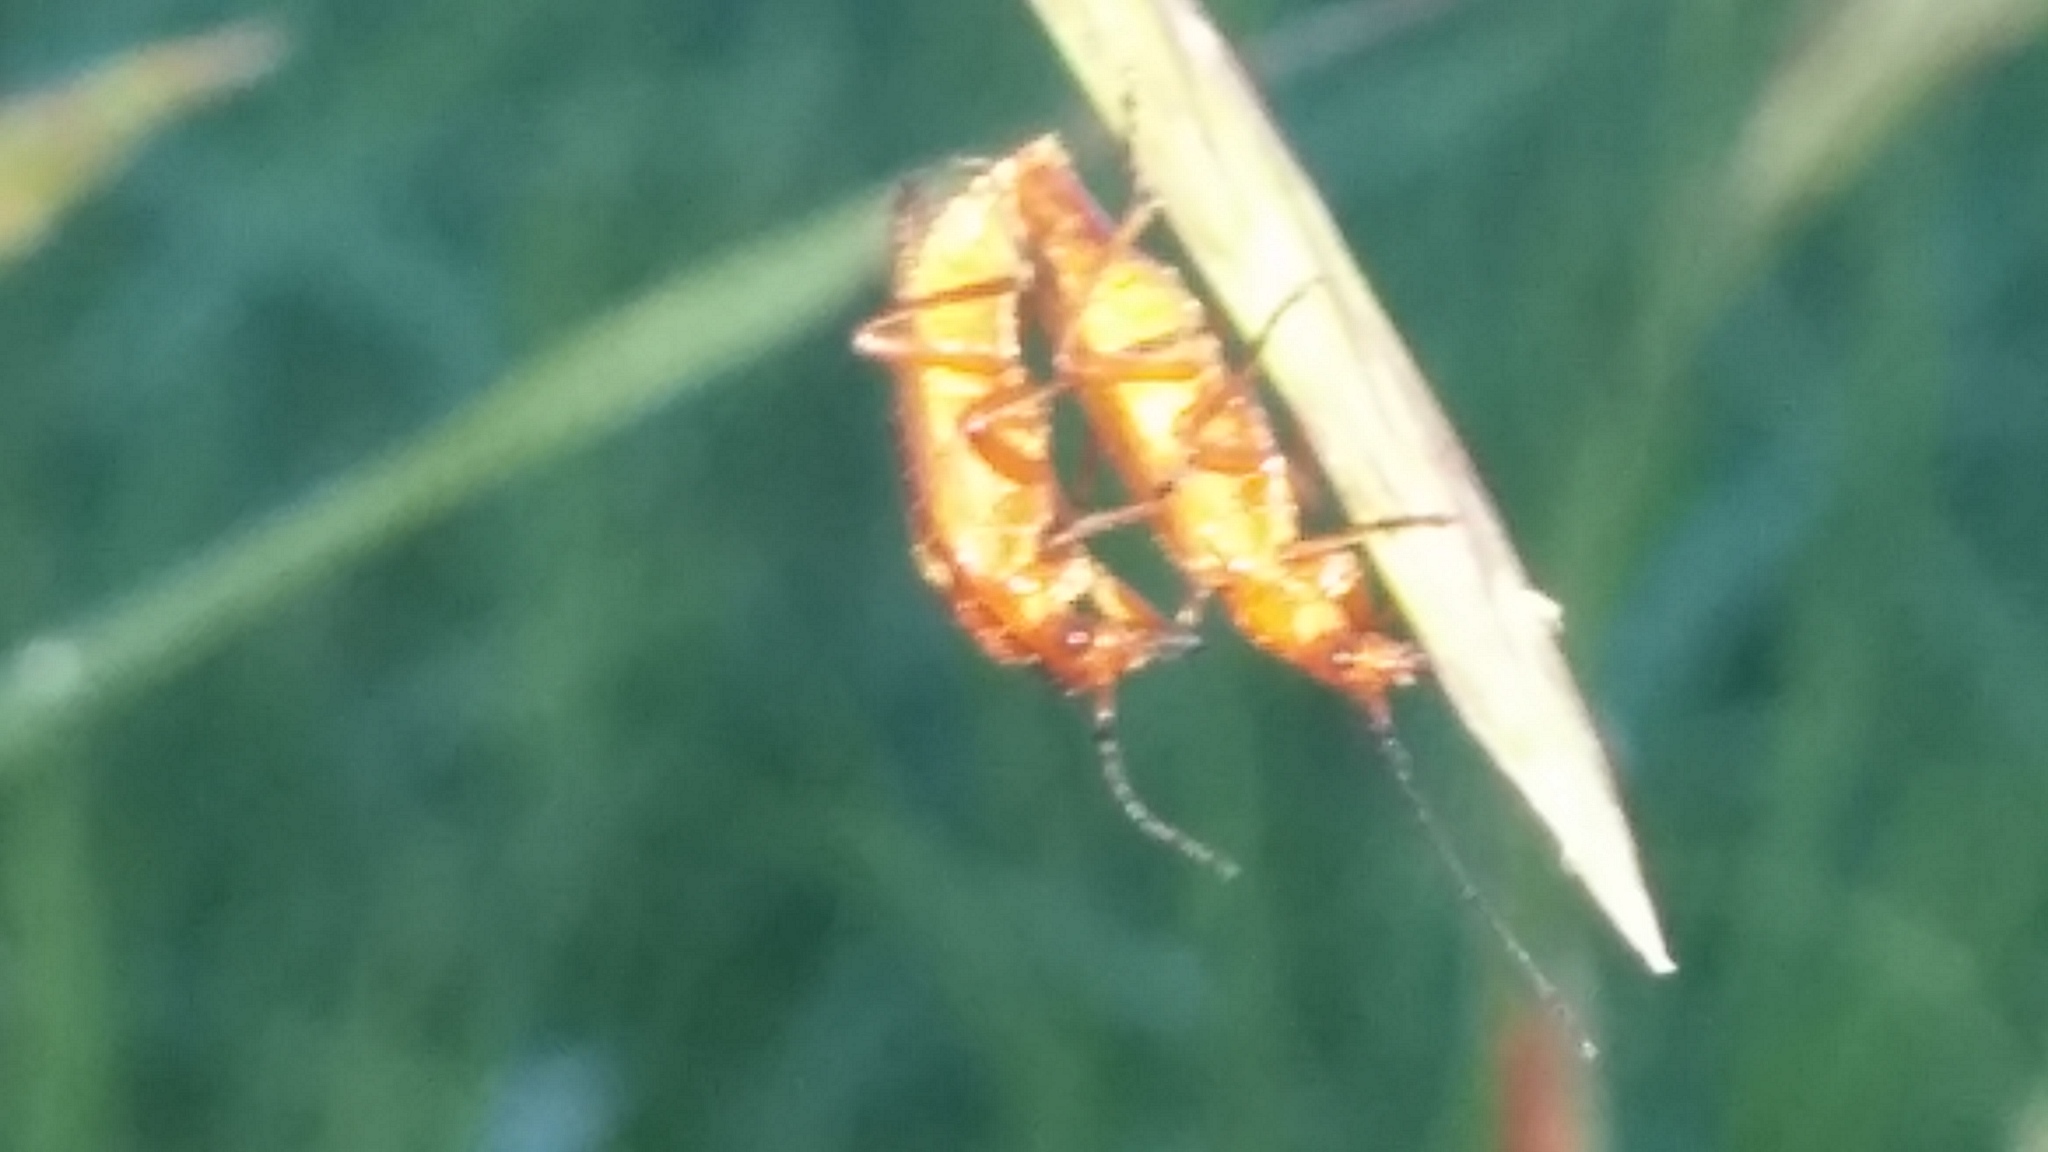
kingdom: Animalia
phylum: Arthropoda
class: Insecta
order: Coleoptera
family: Cantharidae
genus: Rhagonycha
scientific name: Rhagonycha fulva
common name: Common red soldier beetle
